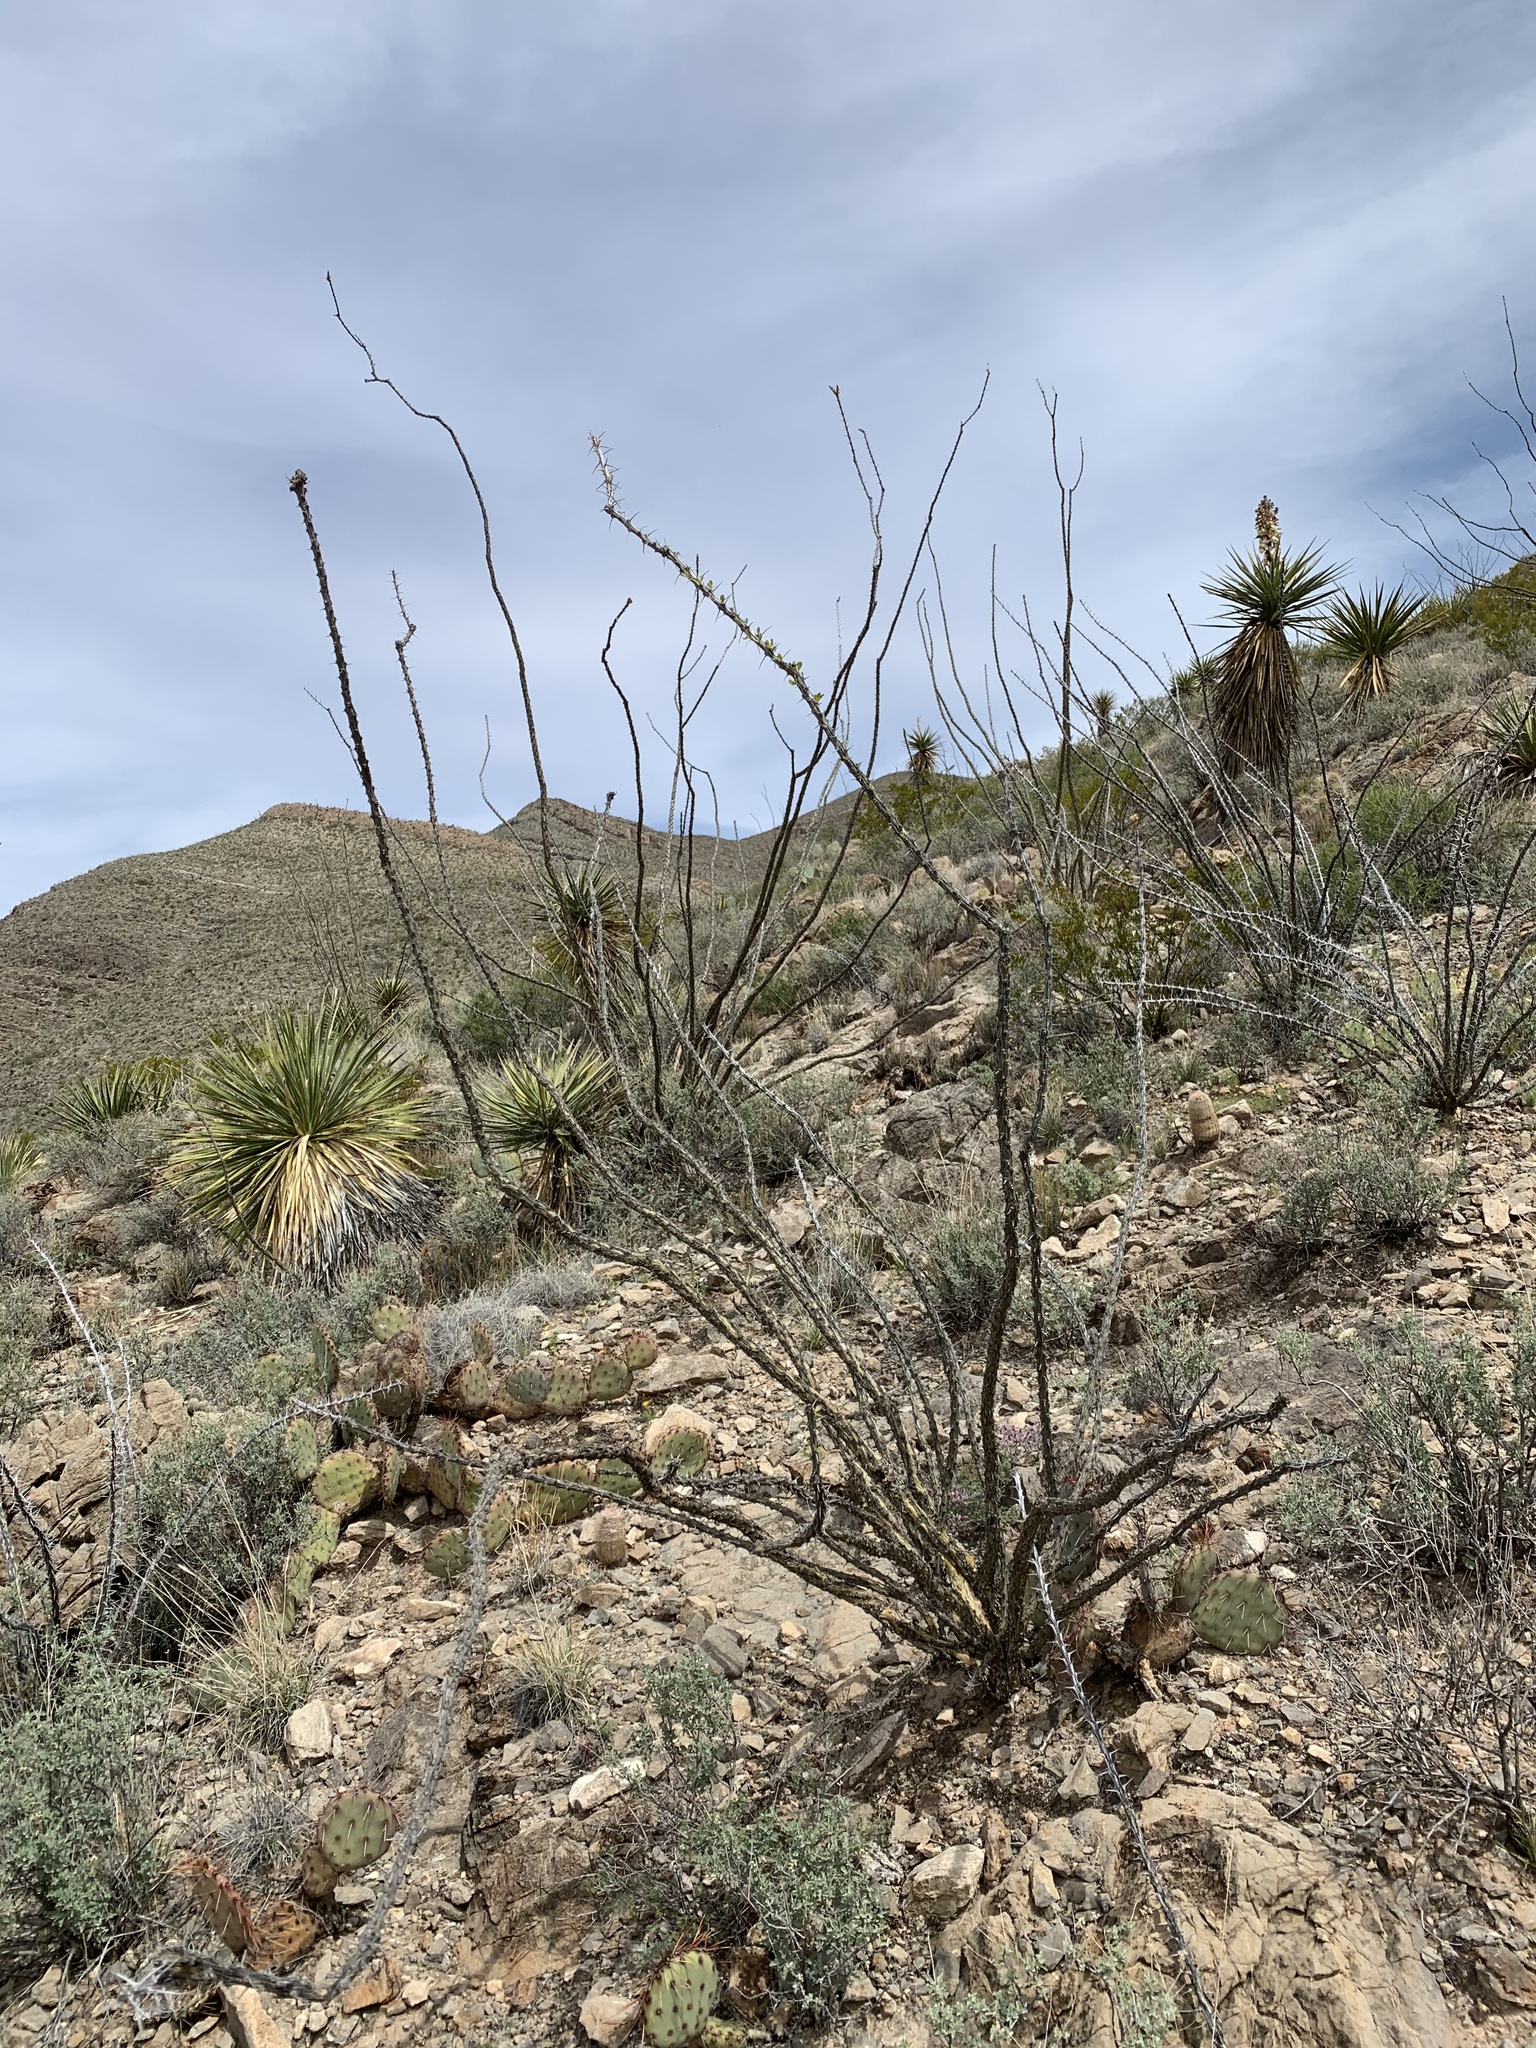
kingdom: Plantae
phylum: Tracheophyta
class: Magnoliopsida
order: Ericales
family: Fouquieriaceae
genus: Fouquieria
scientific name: Fouquieria splendens
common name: Vine-cactus
